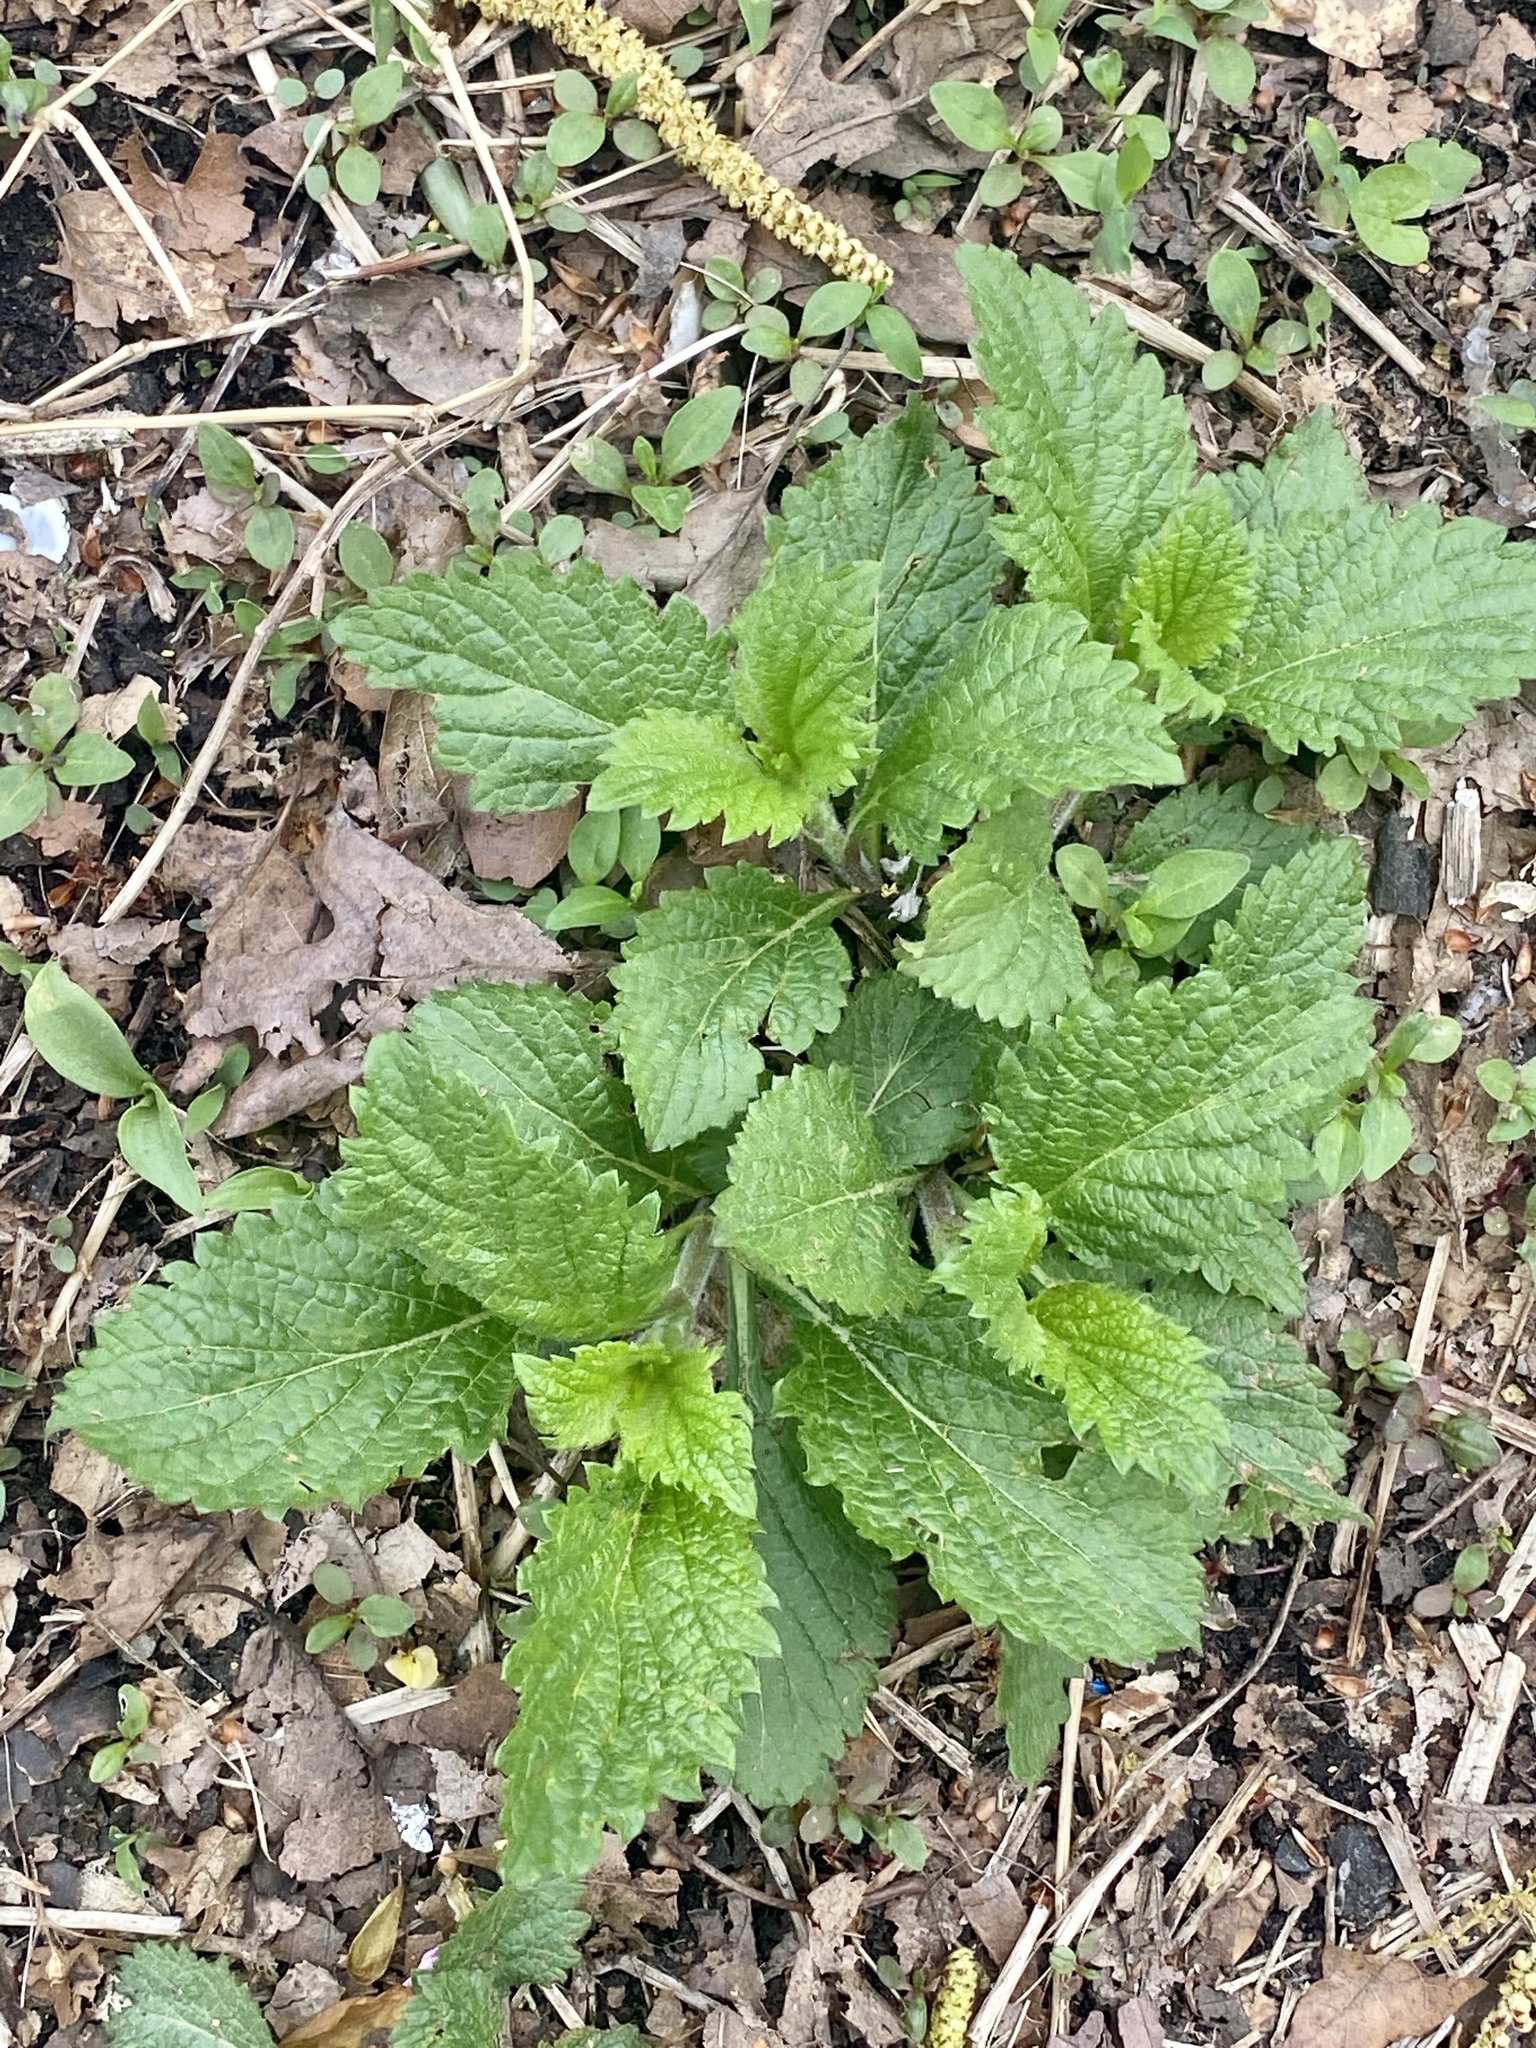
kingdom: Plantae
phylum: Tracheophyta
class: Magnoliopsida
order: Lamiales
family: Verbenaceae
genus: Verbena
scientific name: Verbena urticifolia
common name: Nettle-leaved vervain
